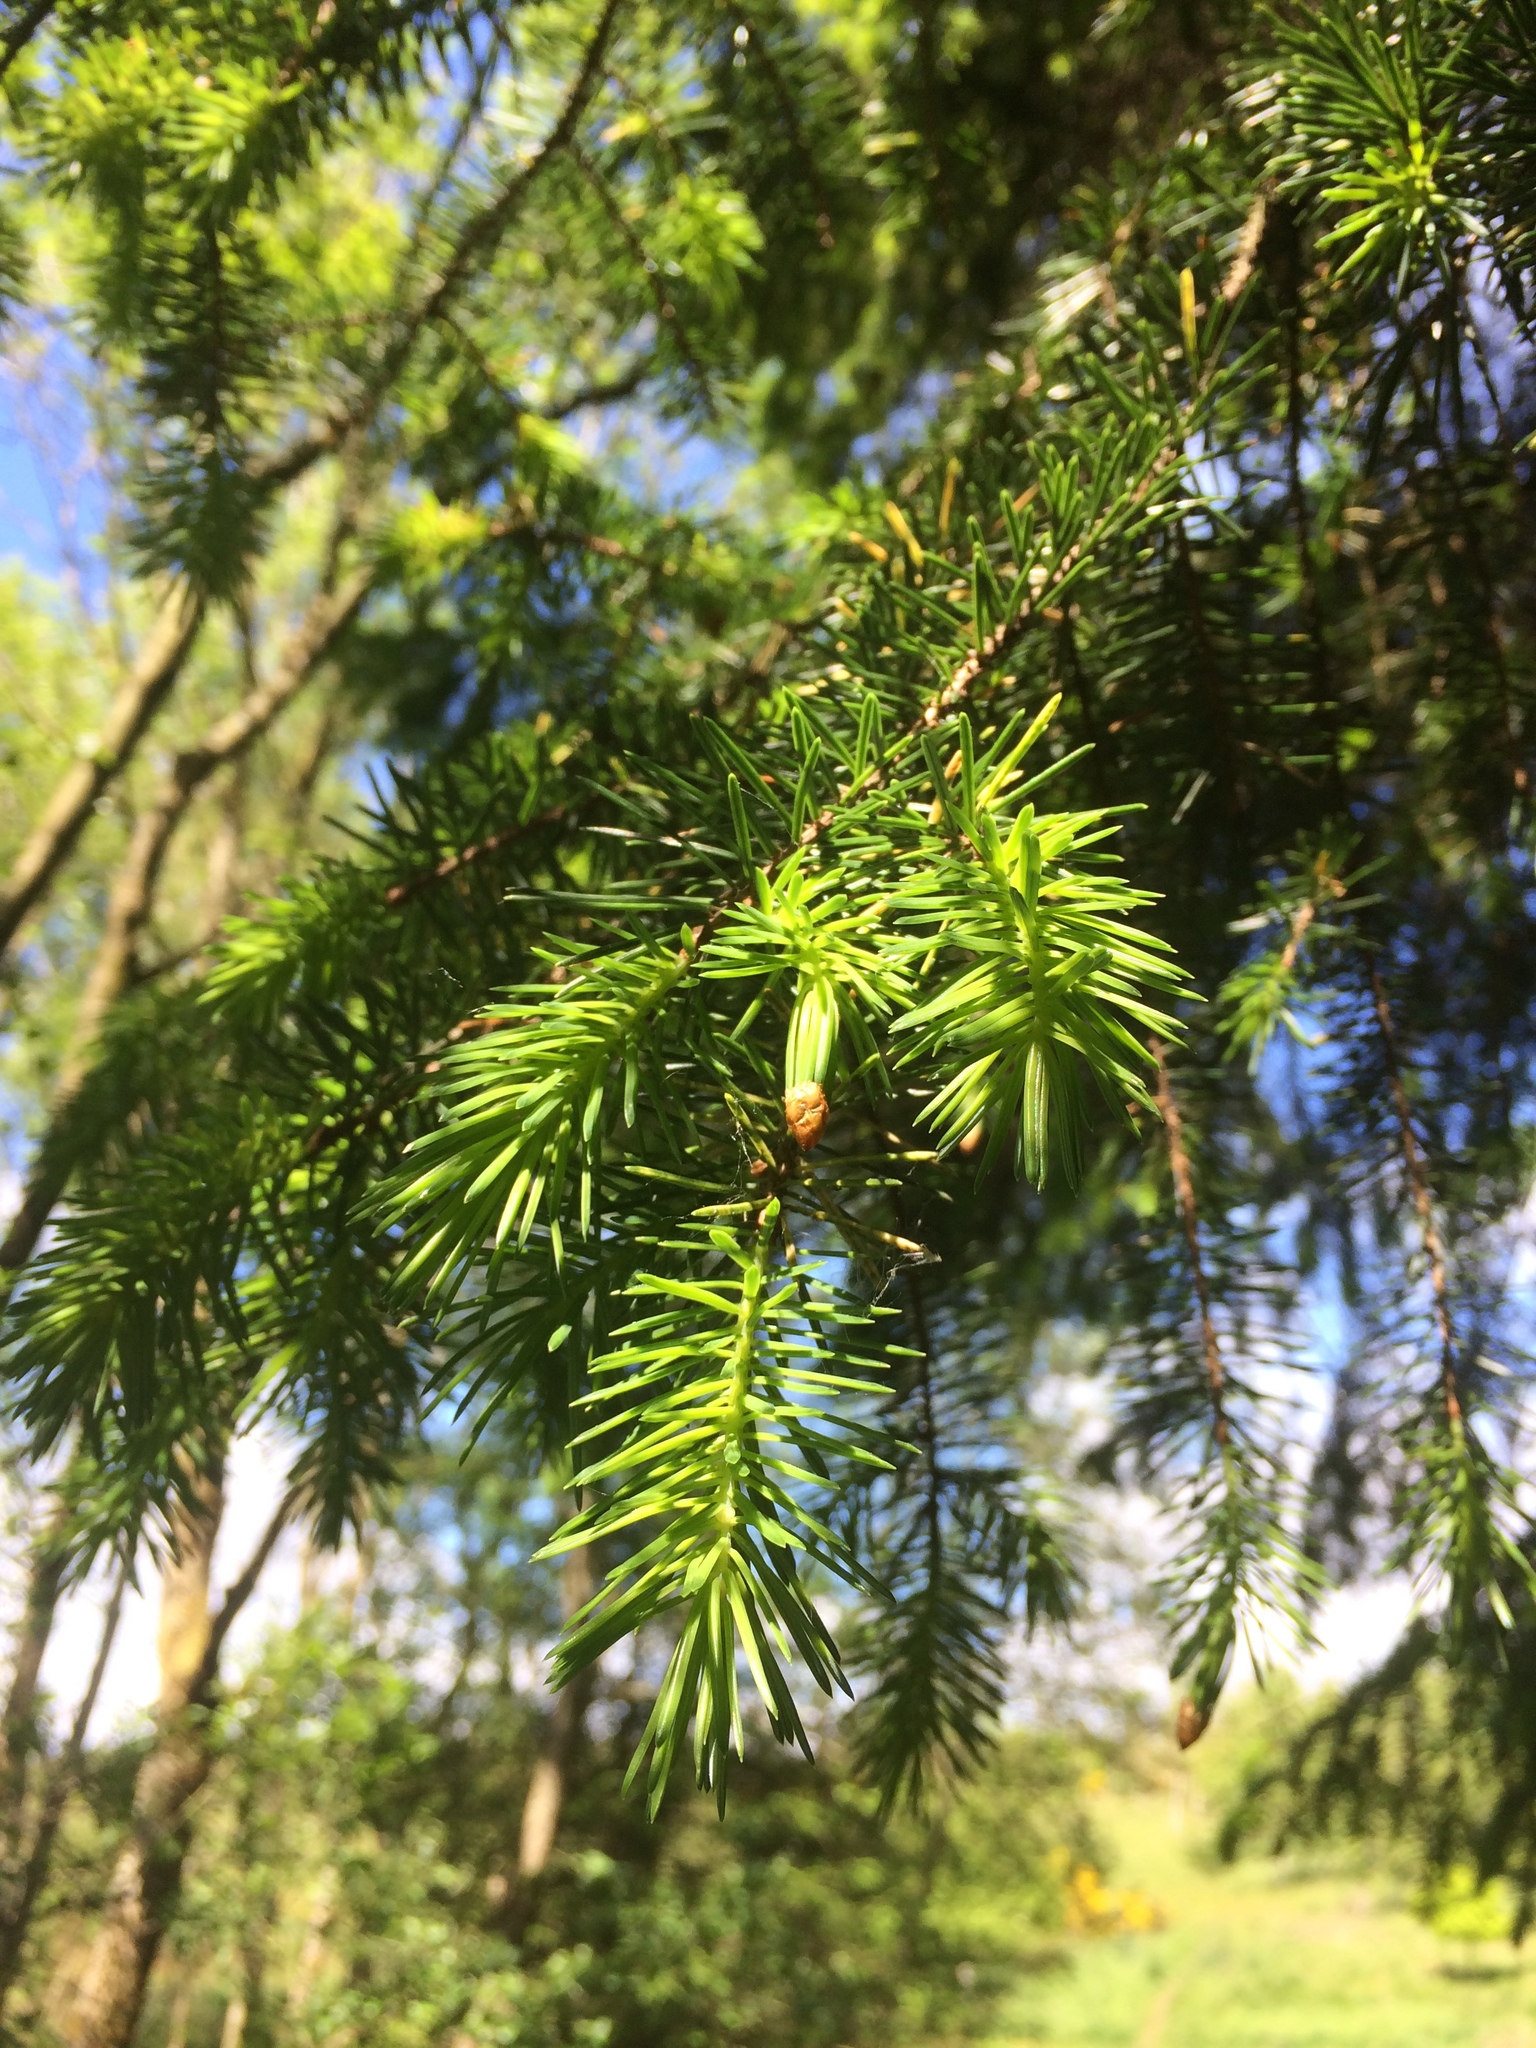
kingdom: Plantae
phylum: Tracheophyta
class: Pinopsida
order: Pinales
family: Pinaceae
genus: Picea
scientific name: Picea sitchensis
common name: Sitka spruce
